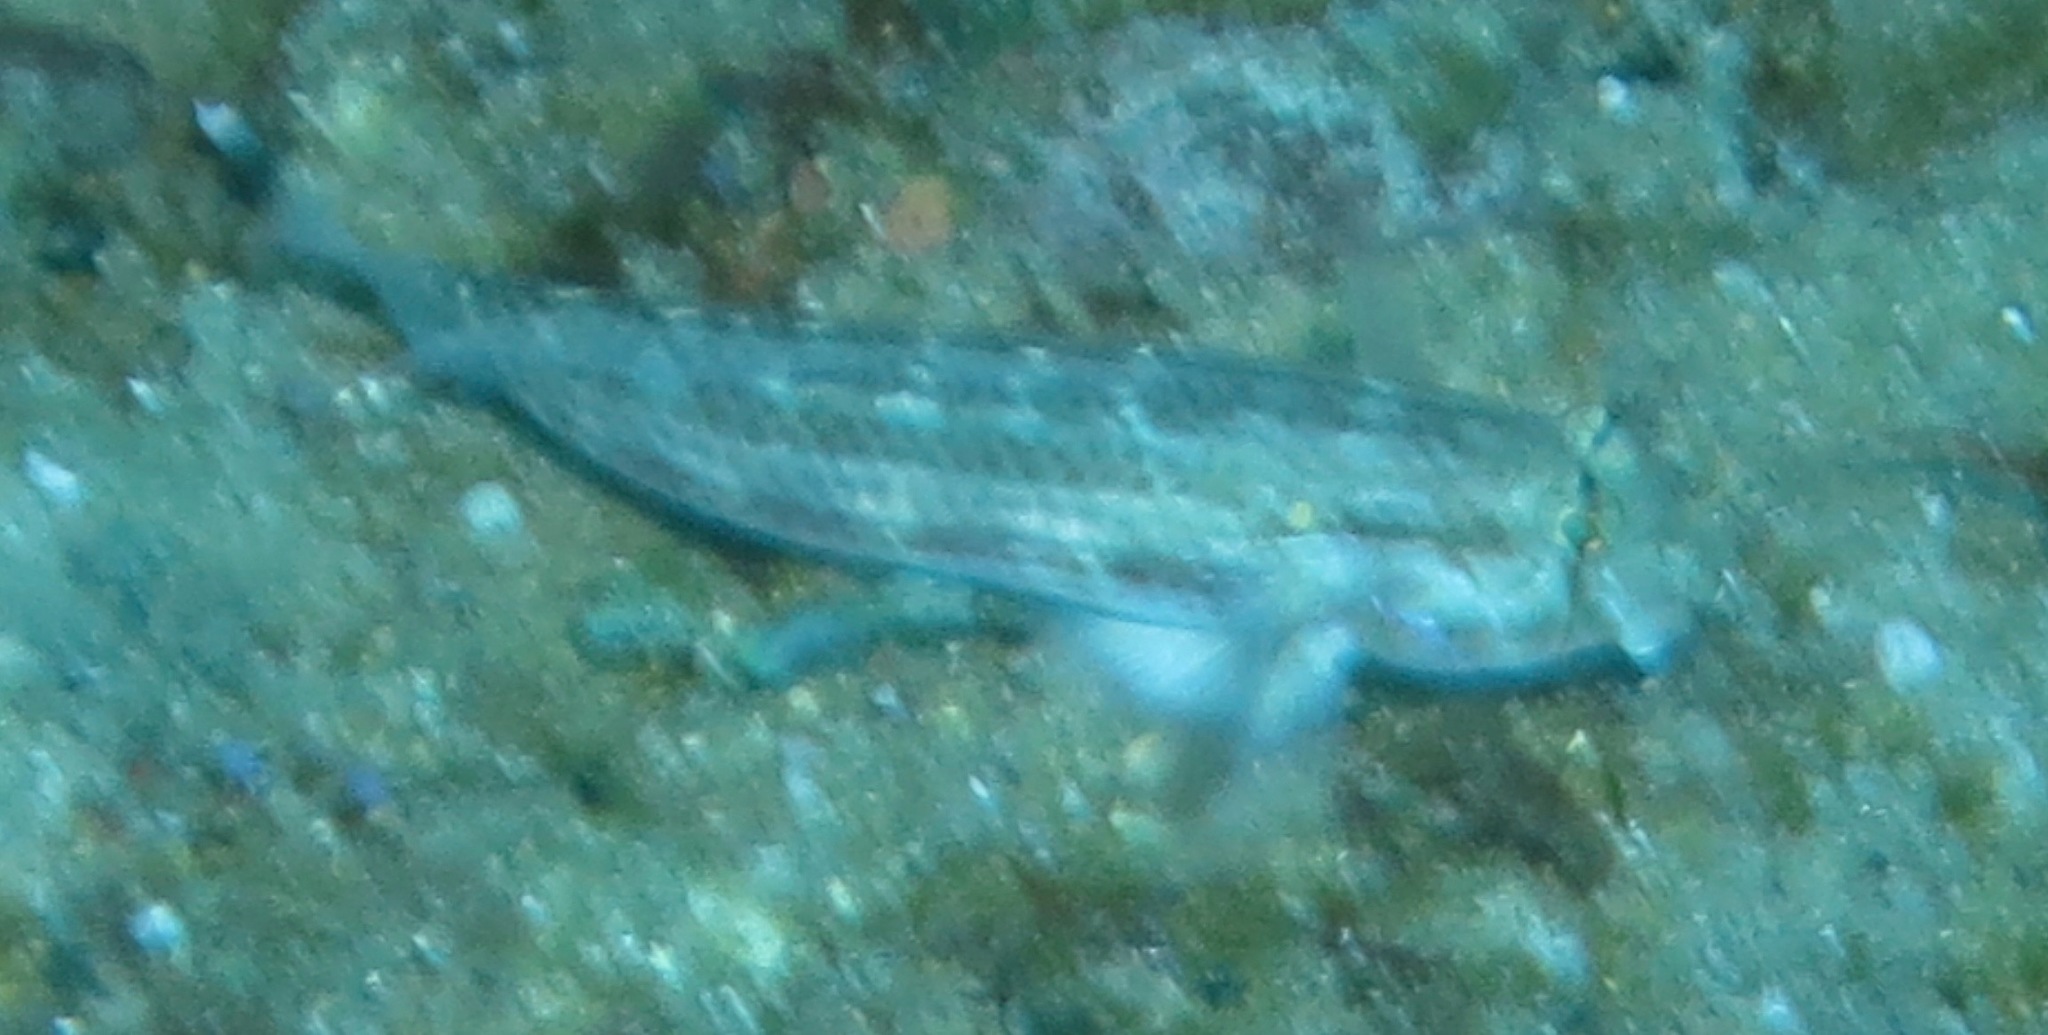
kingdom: Animalia
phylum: Chordata
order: Perciformes
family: Gobiidae
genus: Gnatholepis
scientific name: Gnatholepis cauerensis
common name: Bridled goby
